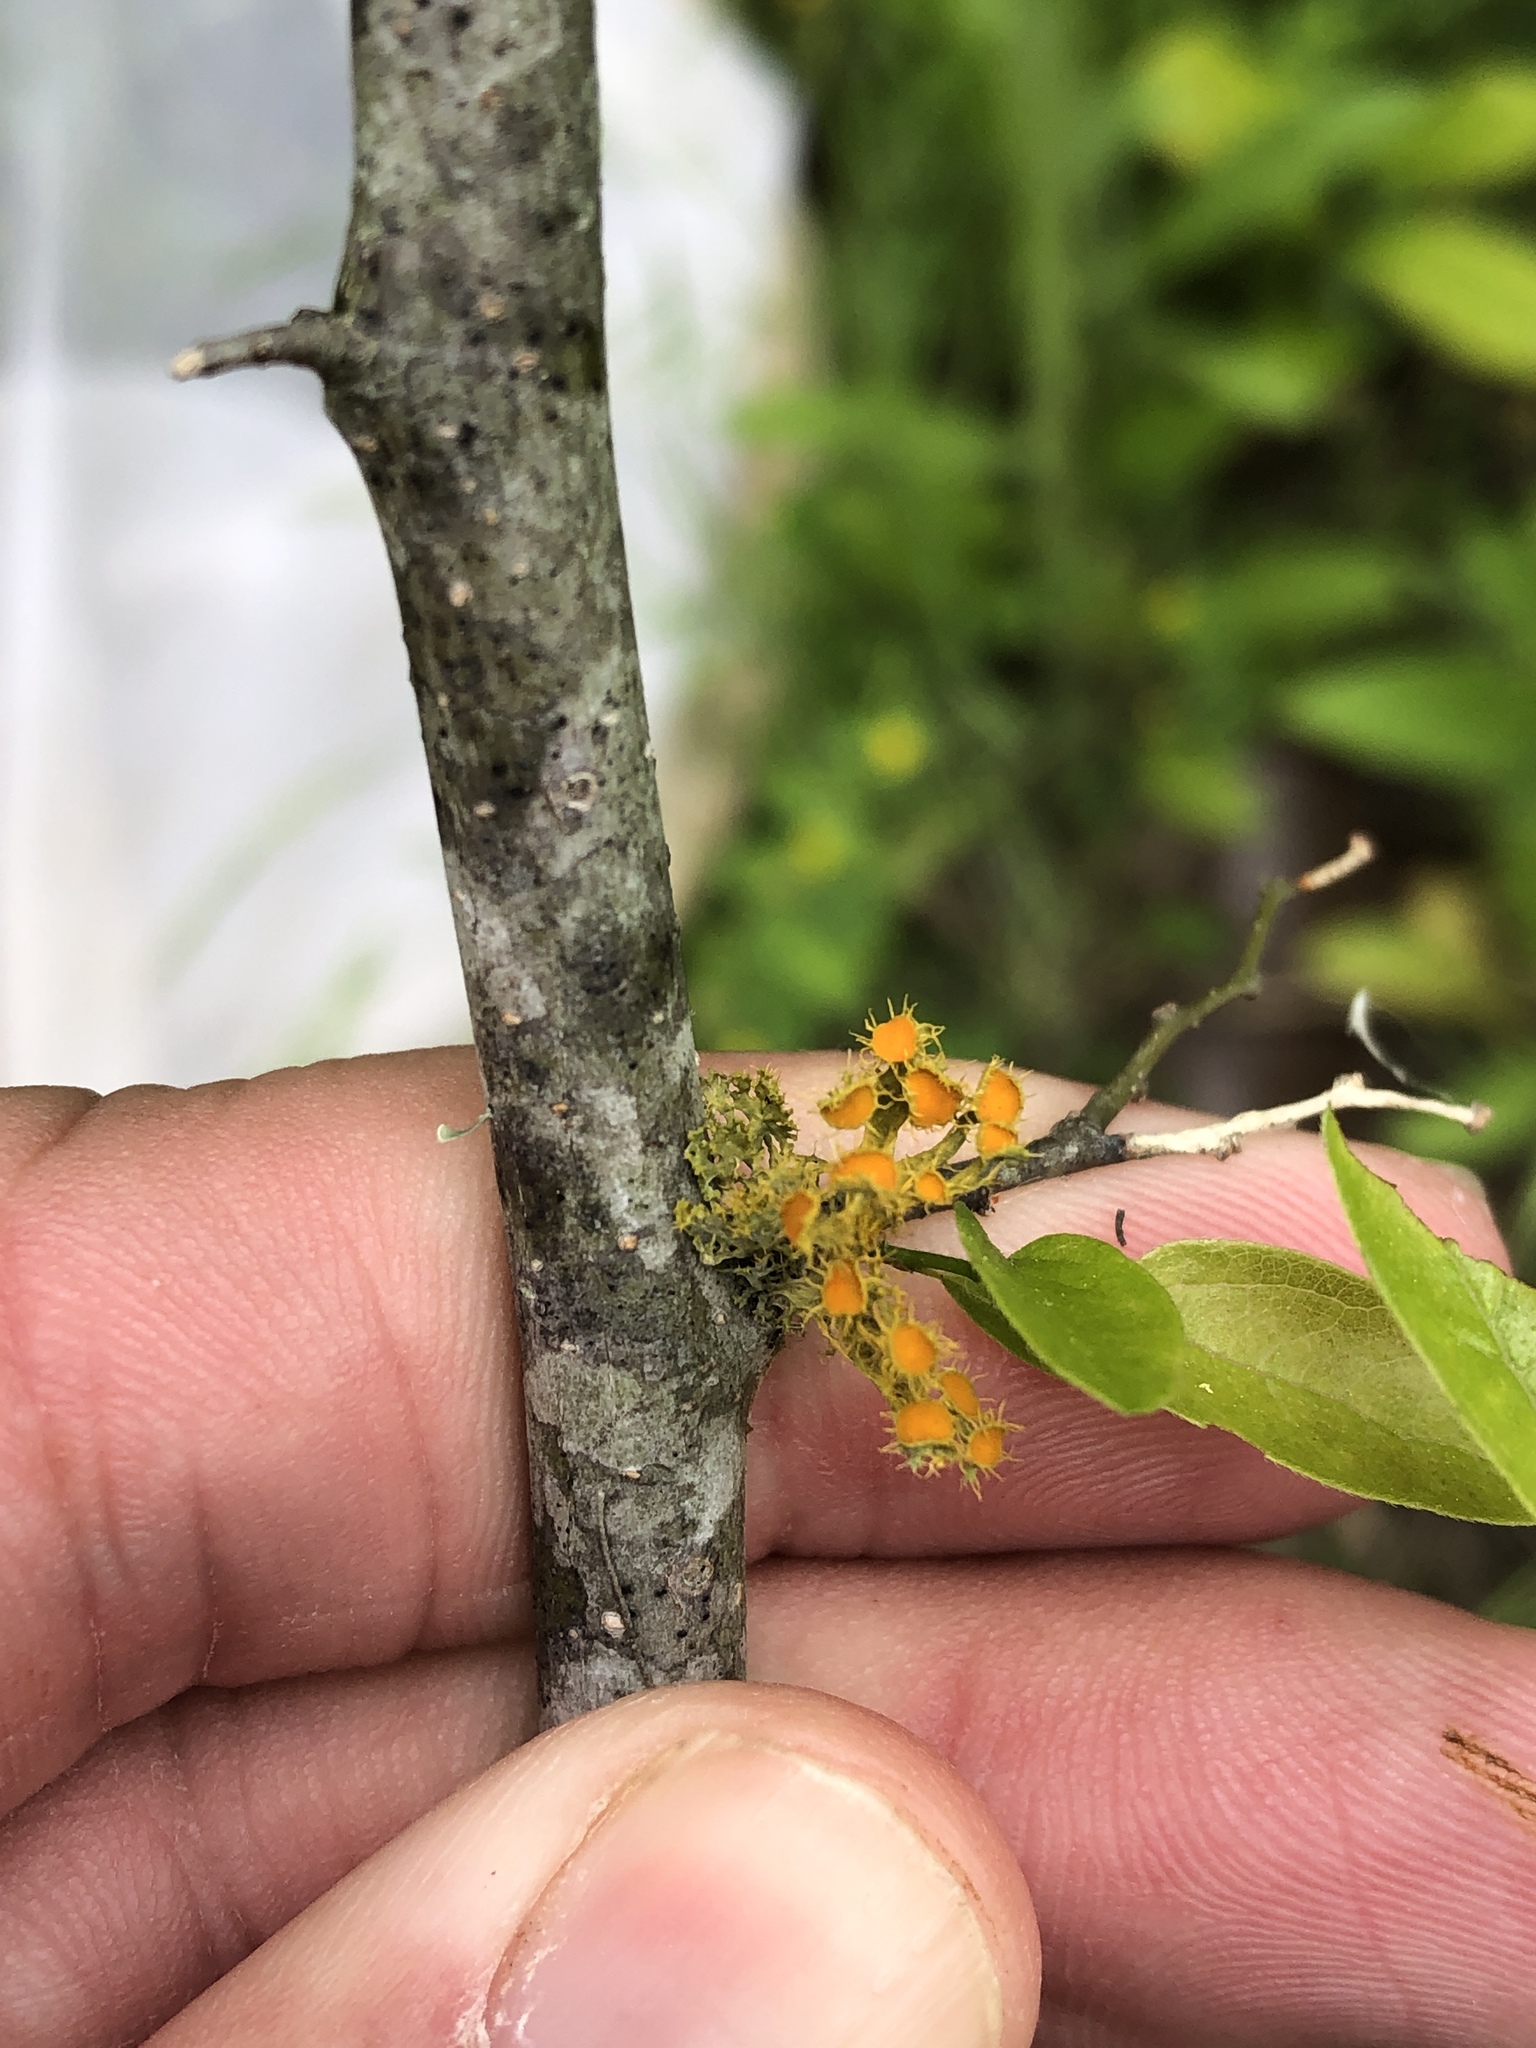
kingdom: Fungi
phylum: Ascomycota
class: Lecanoromycetes
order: Teloschistales
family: Teloschistaceae
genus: Niorma
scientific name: Niorma chrysophthalma
